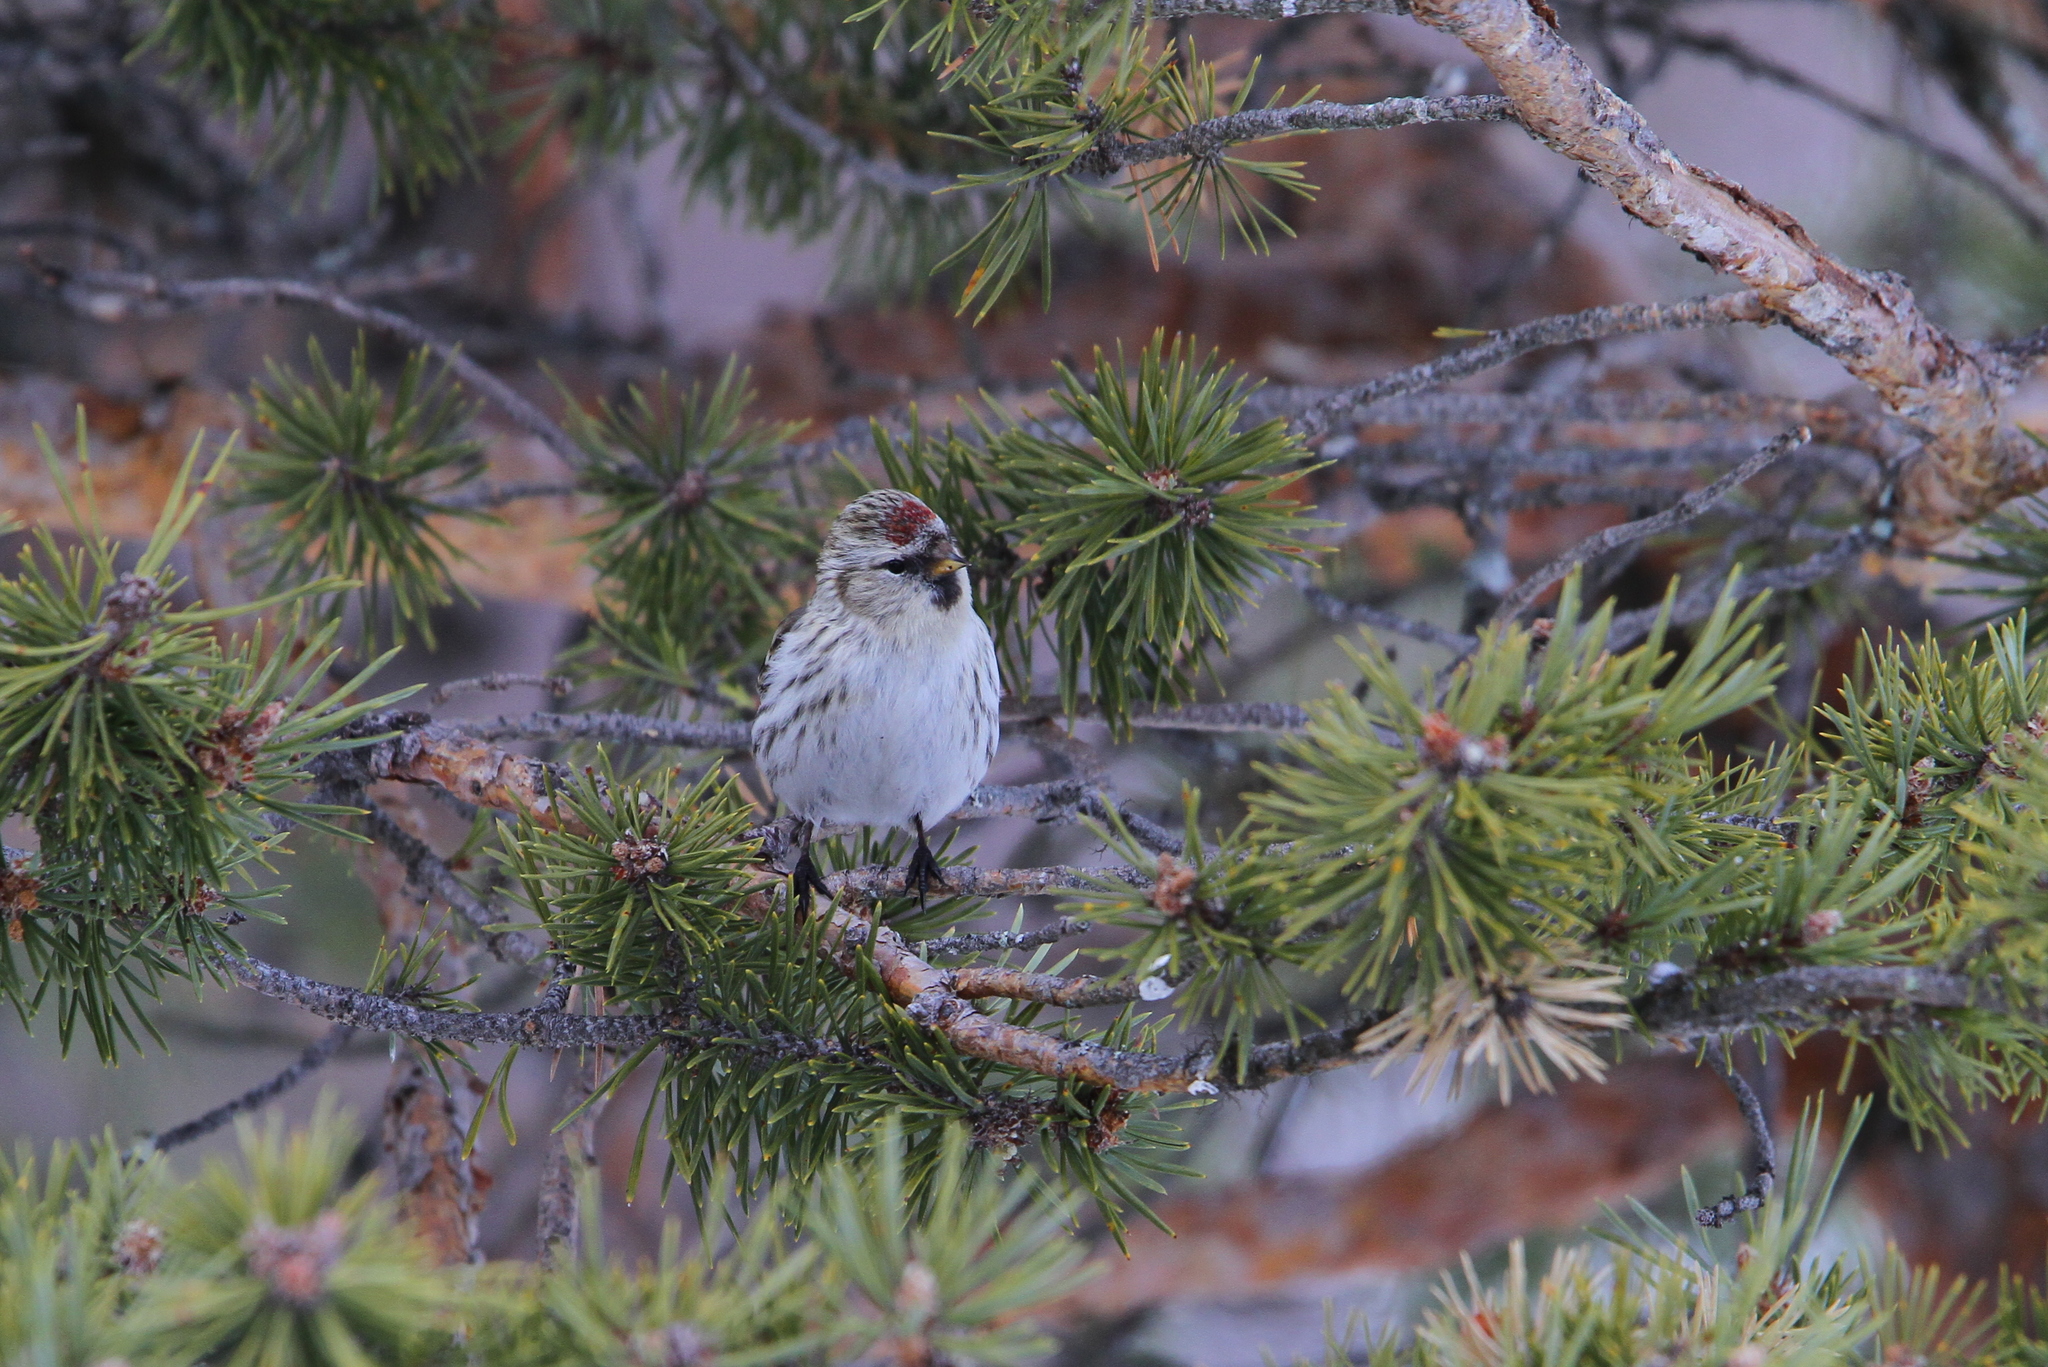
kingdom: Animalia
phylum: Chordata
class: Aves
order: Passeriformes
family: Fringillidae
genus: Acanthis
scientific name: Acanthis hornemanni
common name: Arctic redpoll
